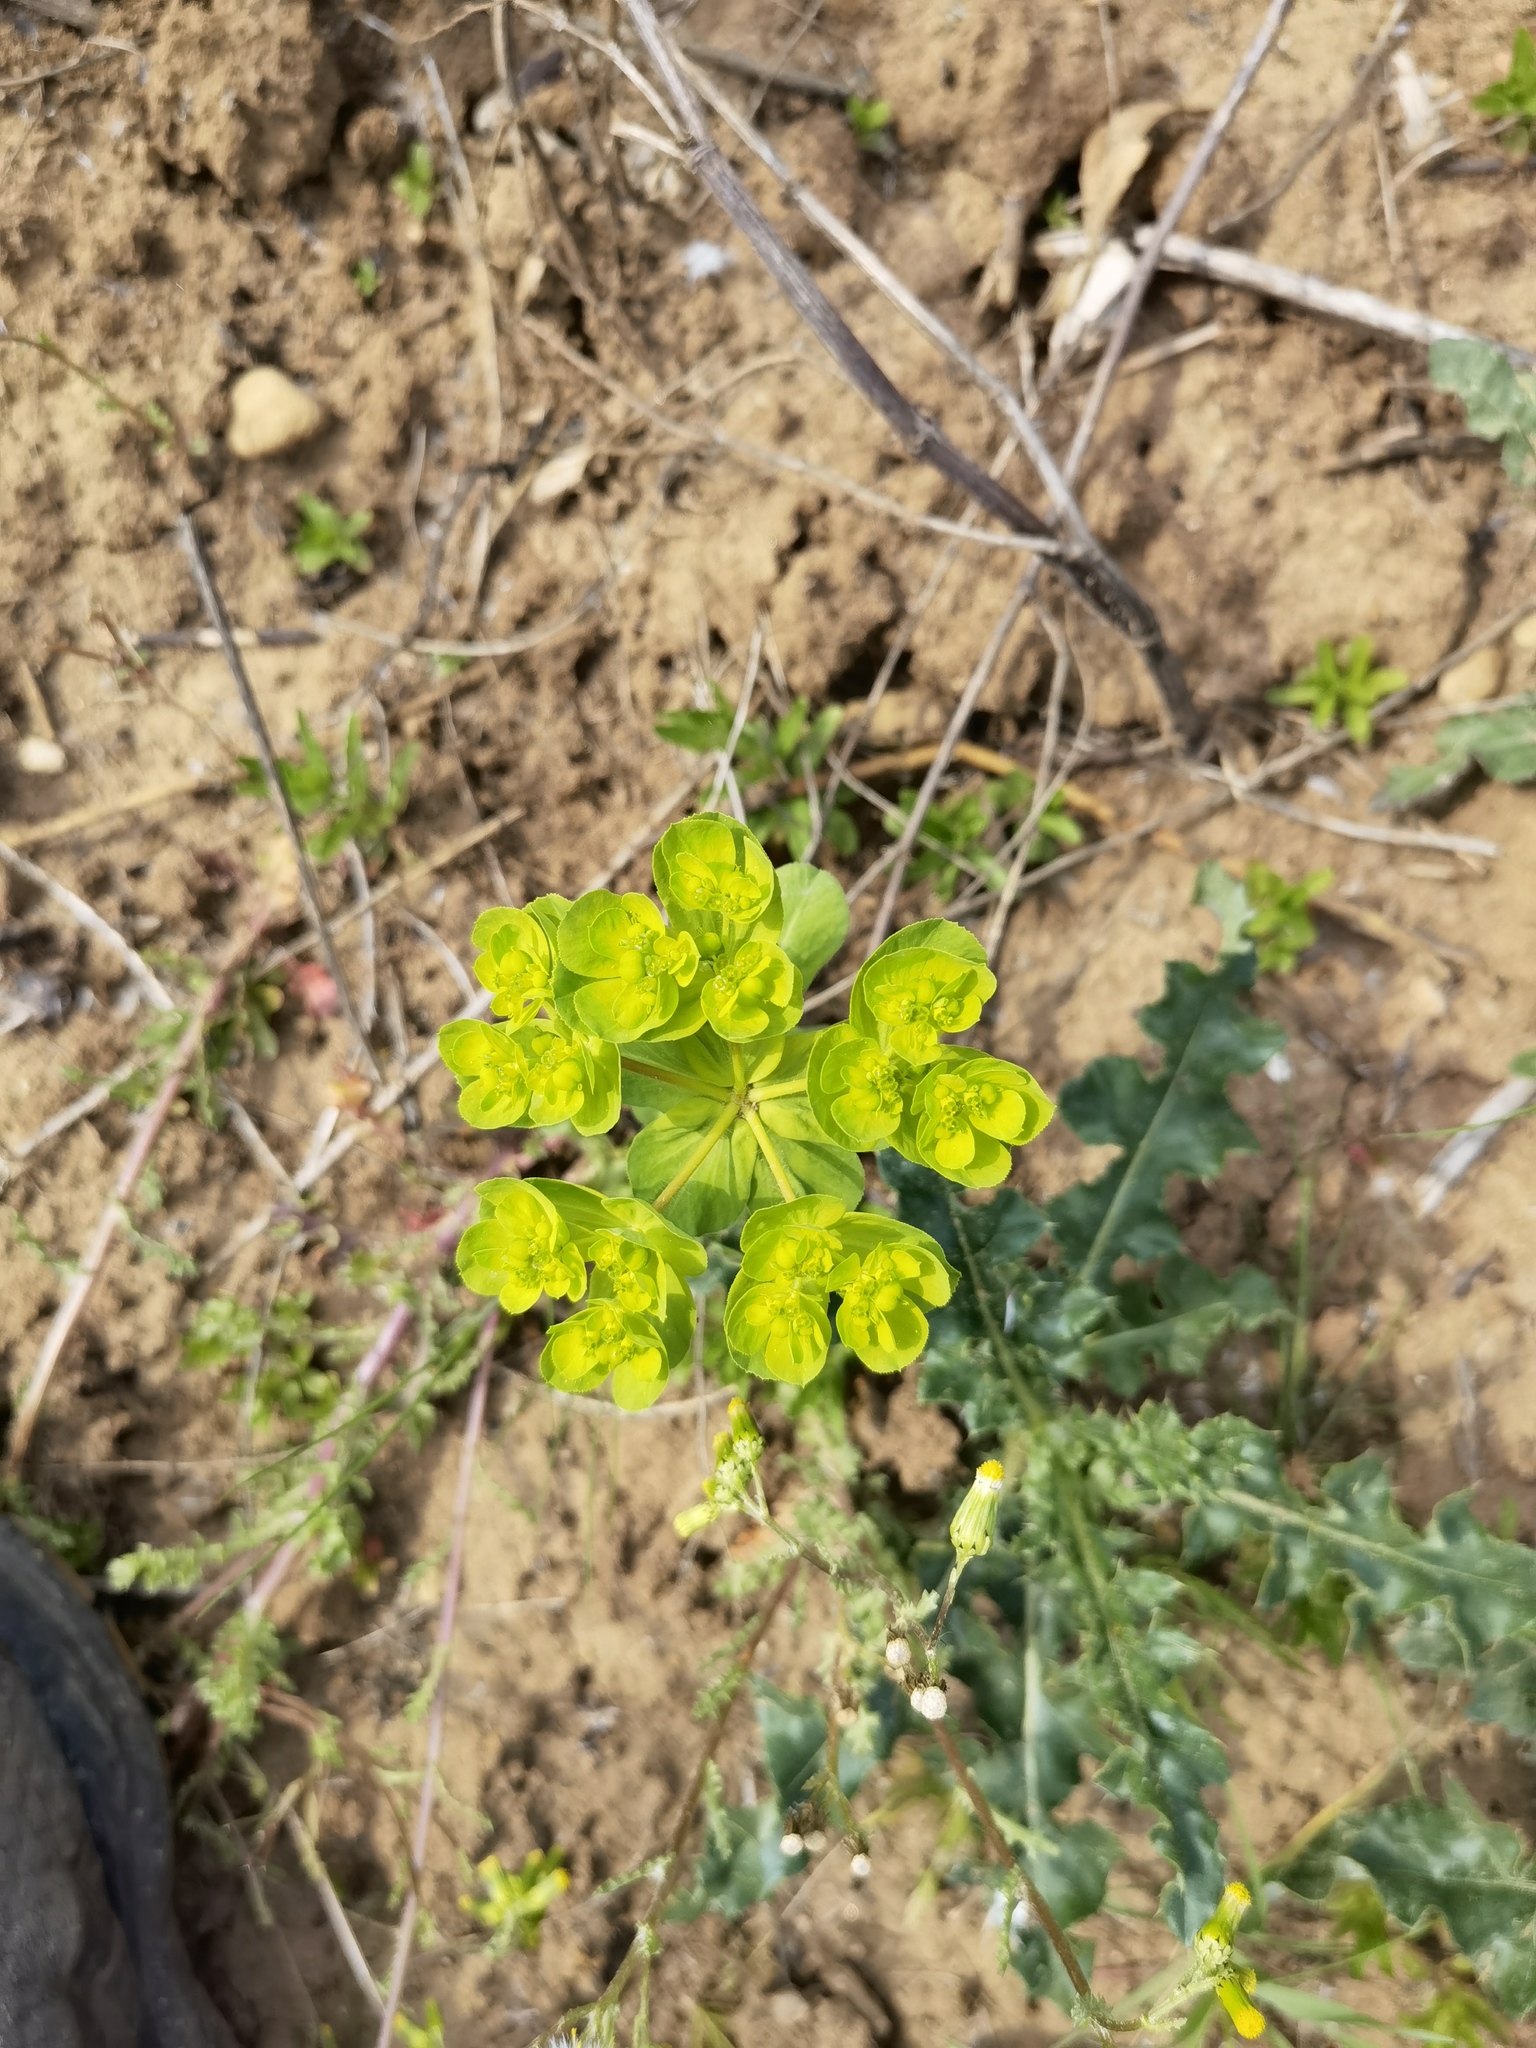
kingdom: Plantae
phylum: Tracheophyta
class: Magnoliopsida
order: Malpighiales
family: Euphorbiaceae
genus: Euphorbia
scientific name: Euphorbia helioscopia
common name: Sun spurge
